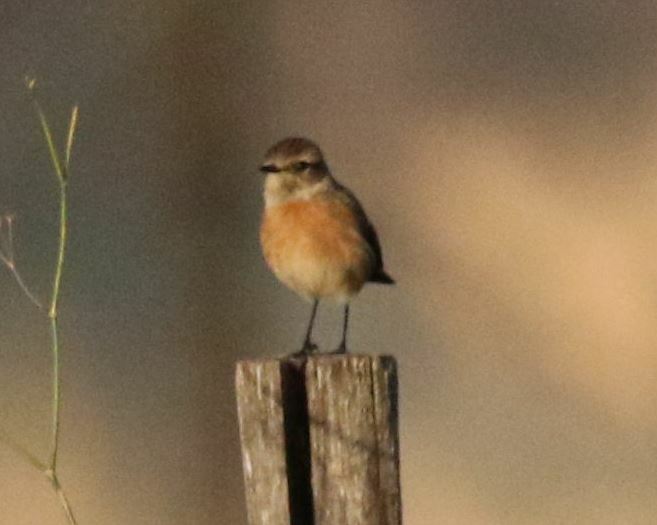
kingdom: Animalia
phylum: Chordata
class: Aves
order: Passeriformes
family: Muscicapidae
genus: Saxicola
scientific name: Saxicola rubicola
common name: European stonechat
